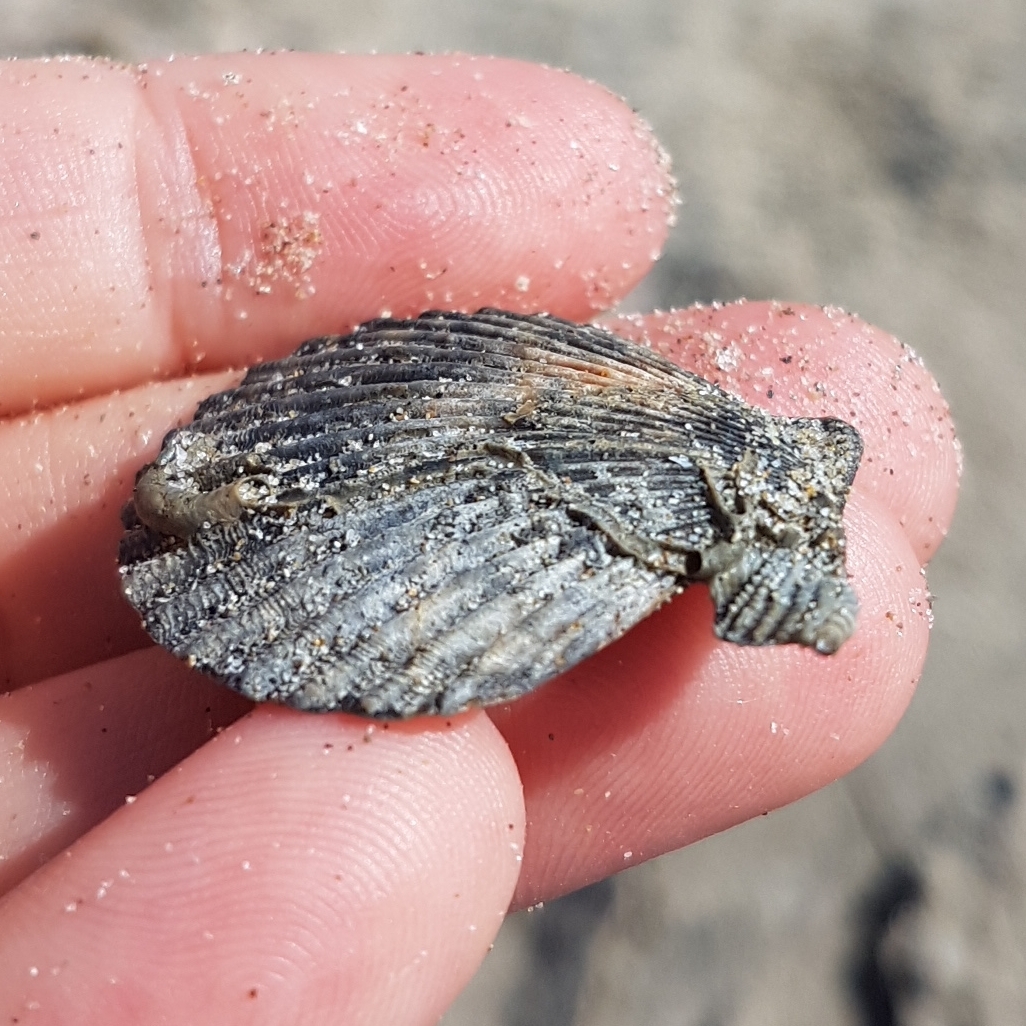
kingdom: Animalia
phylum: Mollusca
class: Bivalvia
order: Pectinida
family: Pectinidae
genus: Aequipecten
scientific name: Aequipecten opercularis
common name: Queen scallop
